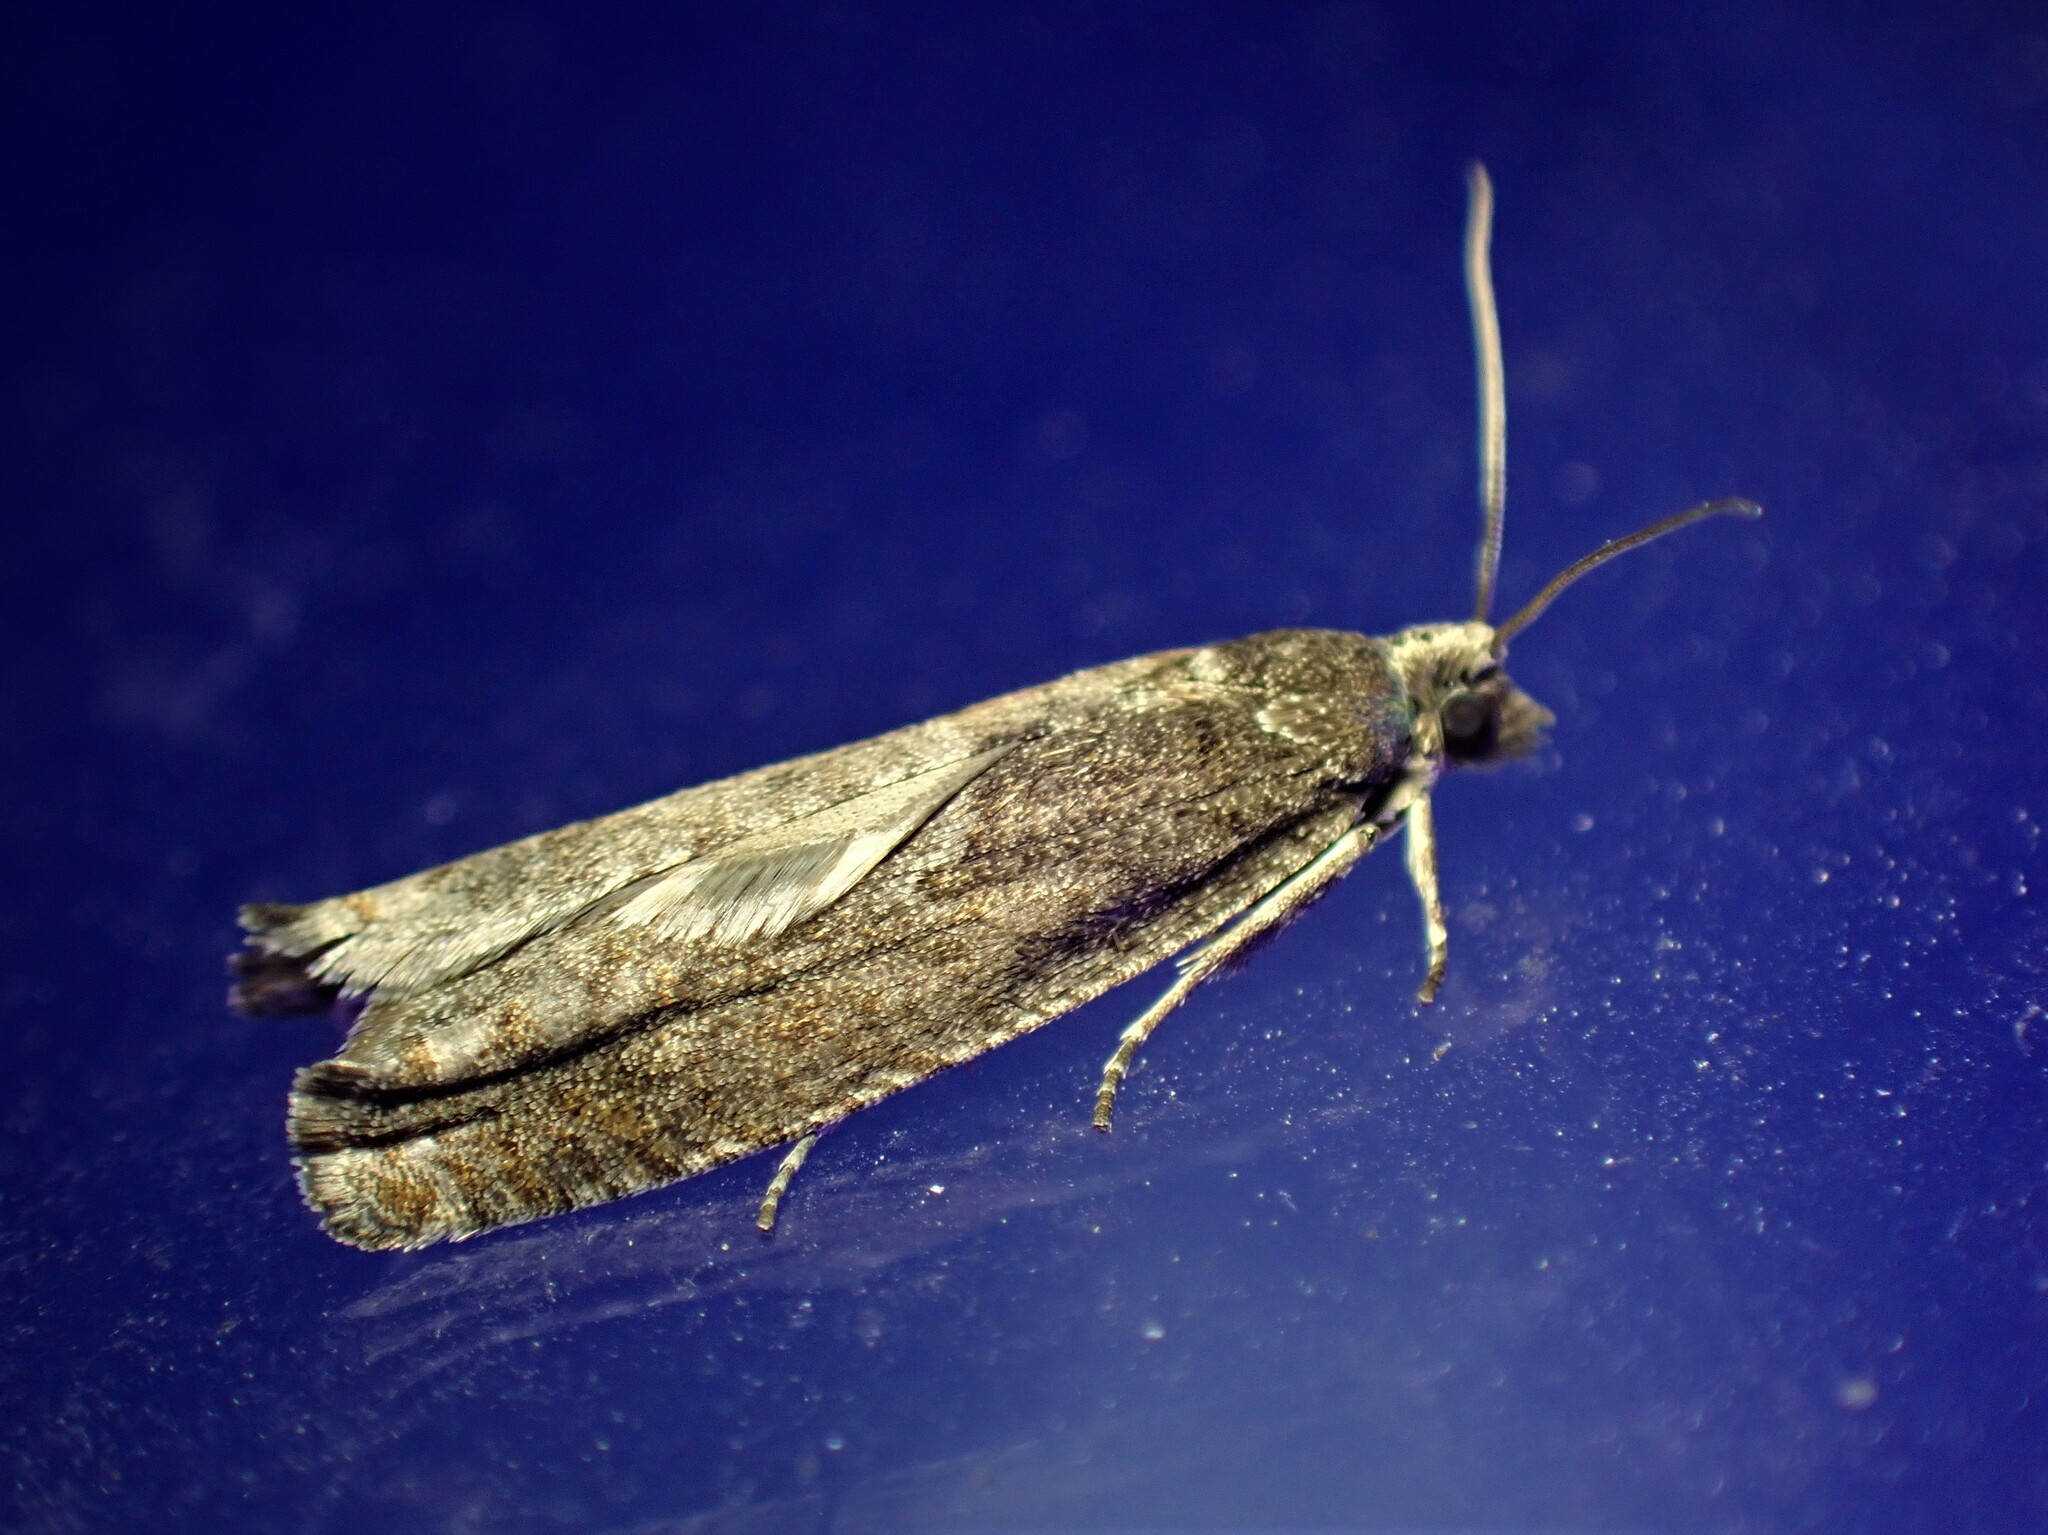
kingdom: Animalia
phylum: Arthropoda
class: Insecta
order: Lepidoptera
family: Tortricidae
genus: Pseudexentera
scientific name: Pseudexentera oregonana
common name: Early aspen leafcurler
